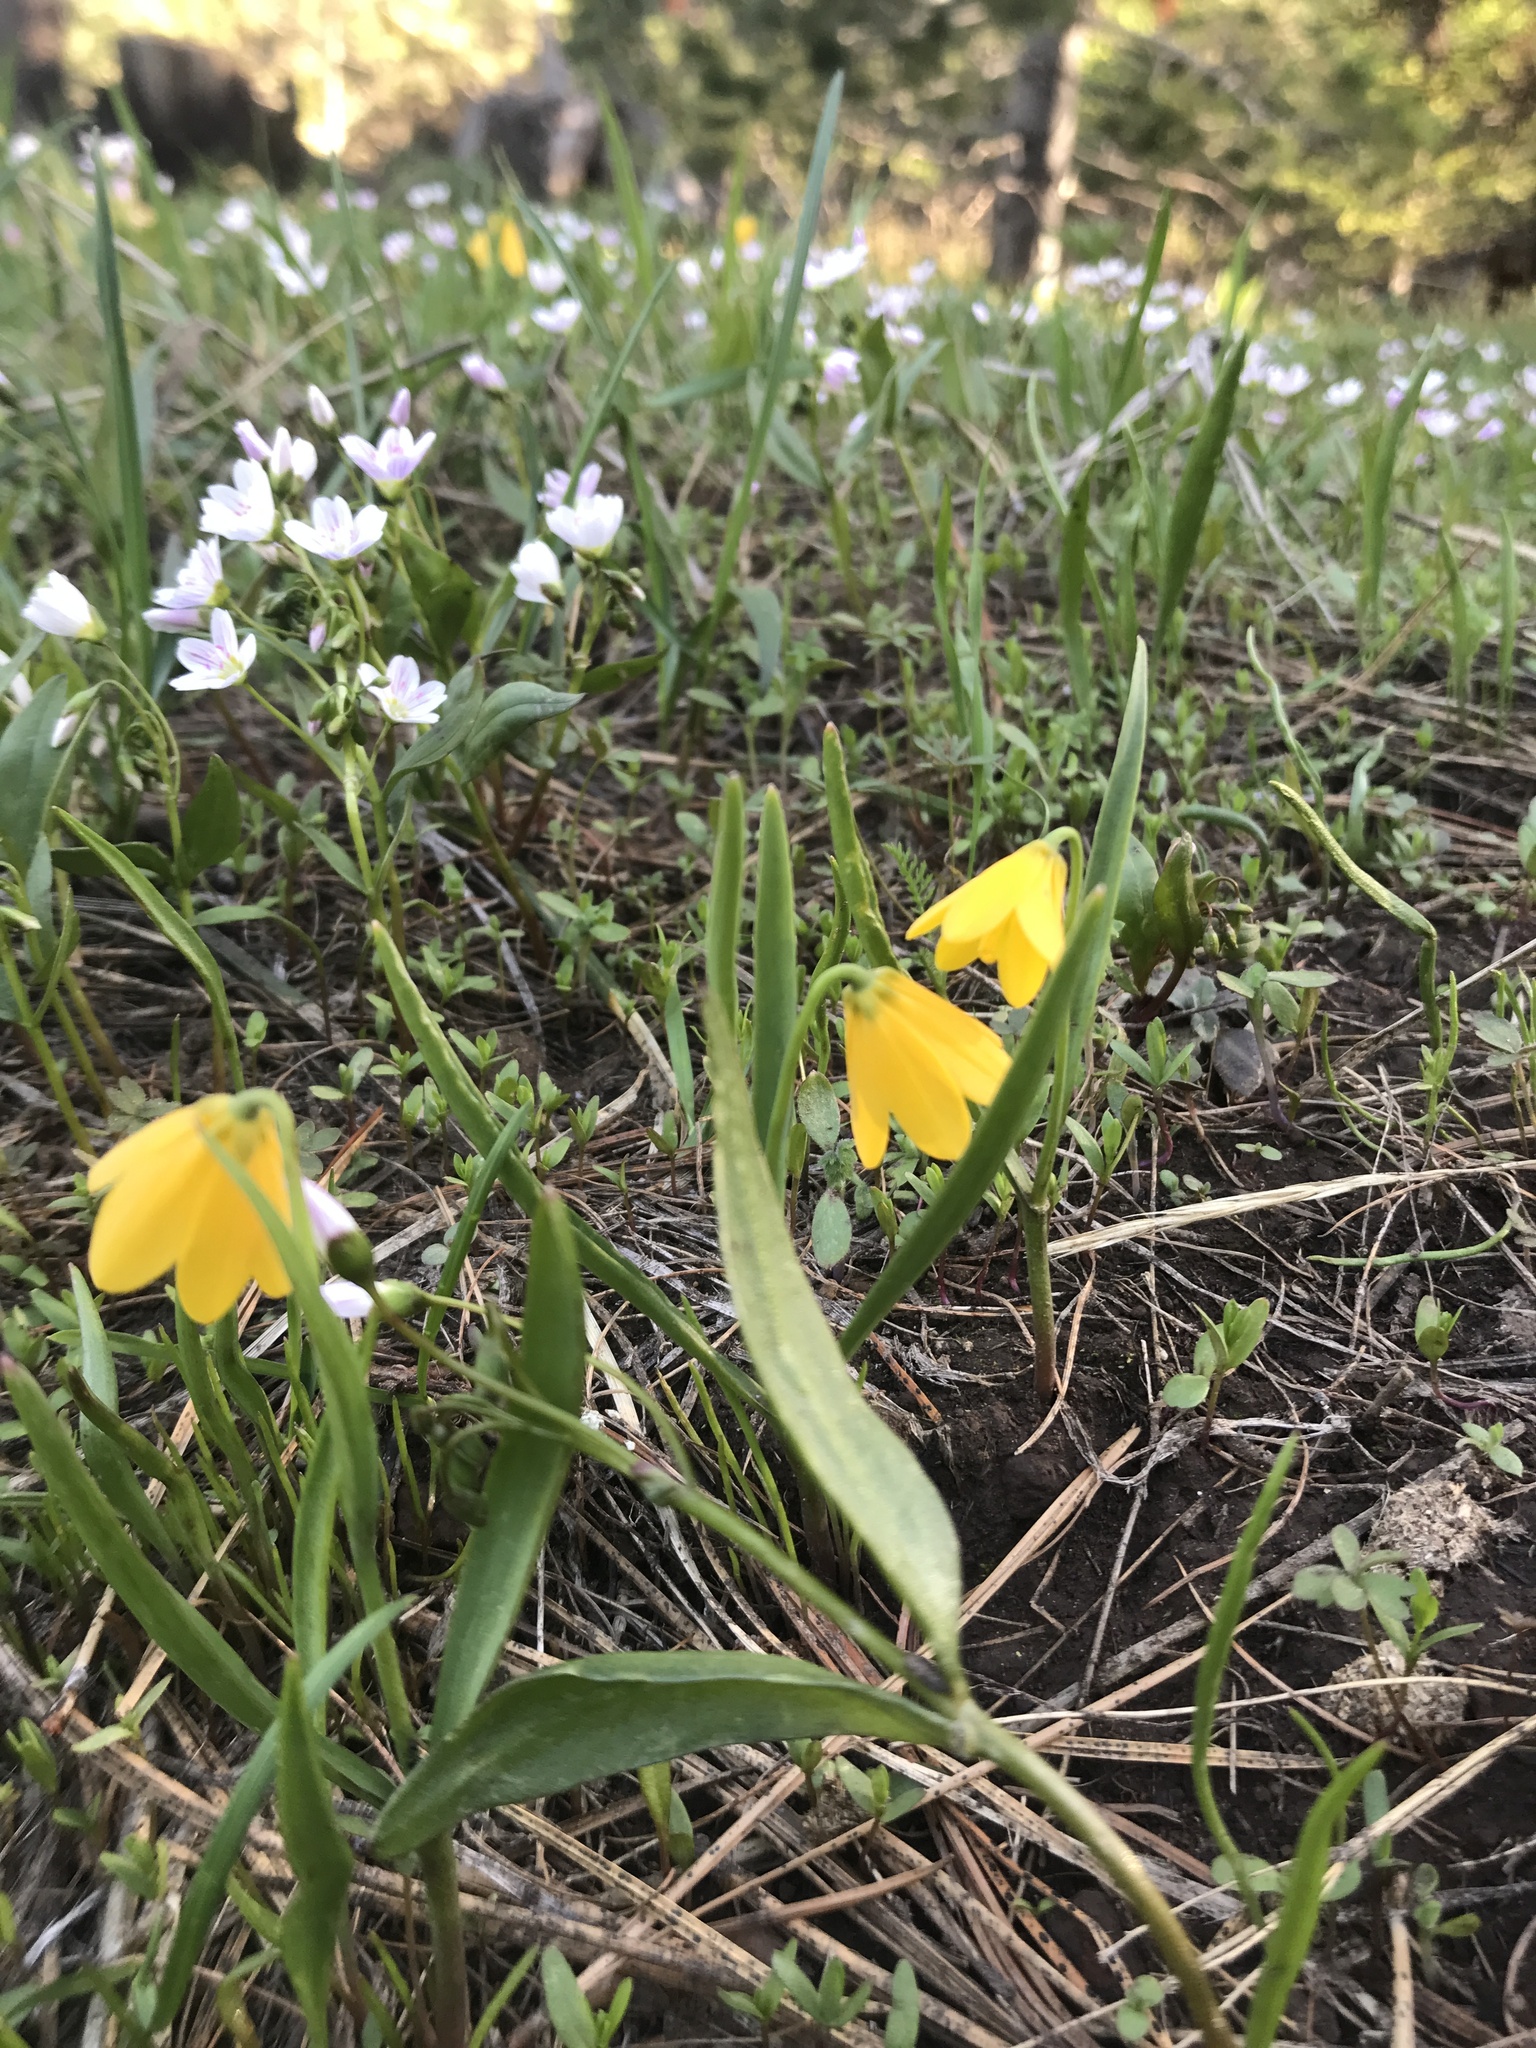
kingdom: Plantae
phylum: Tracheophyta
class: Liliopsida
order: Liliales
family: Liliaceae
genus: Fritillaria
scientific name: Fritillaria pudica
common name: Yellow fritillary
